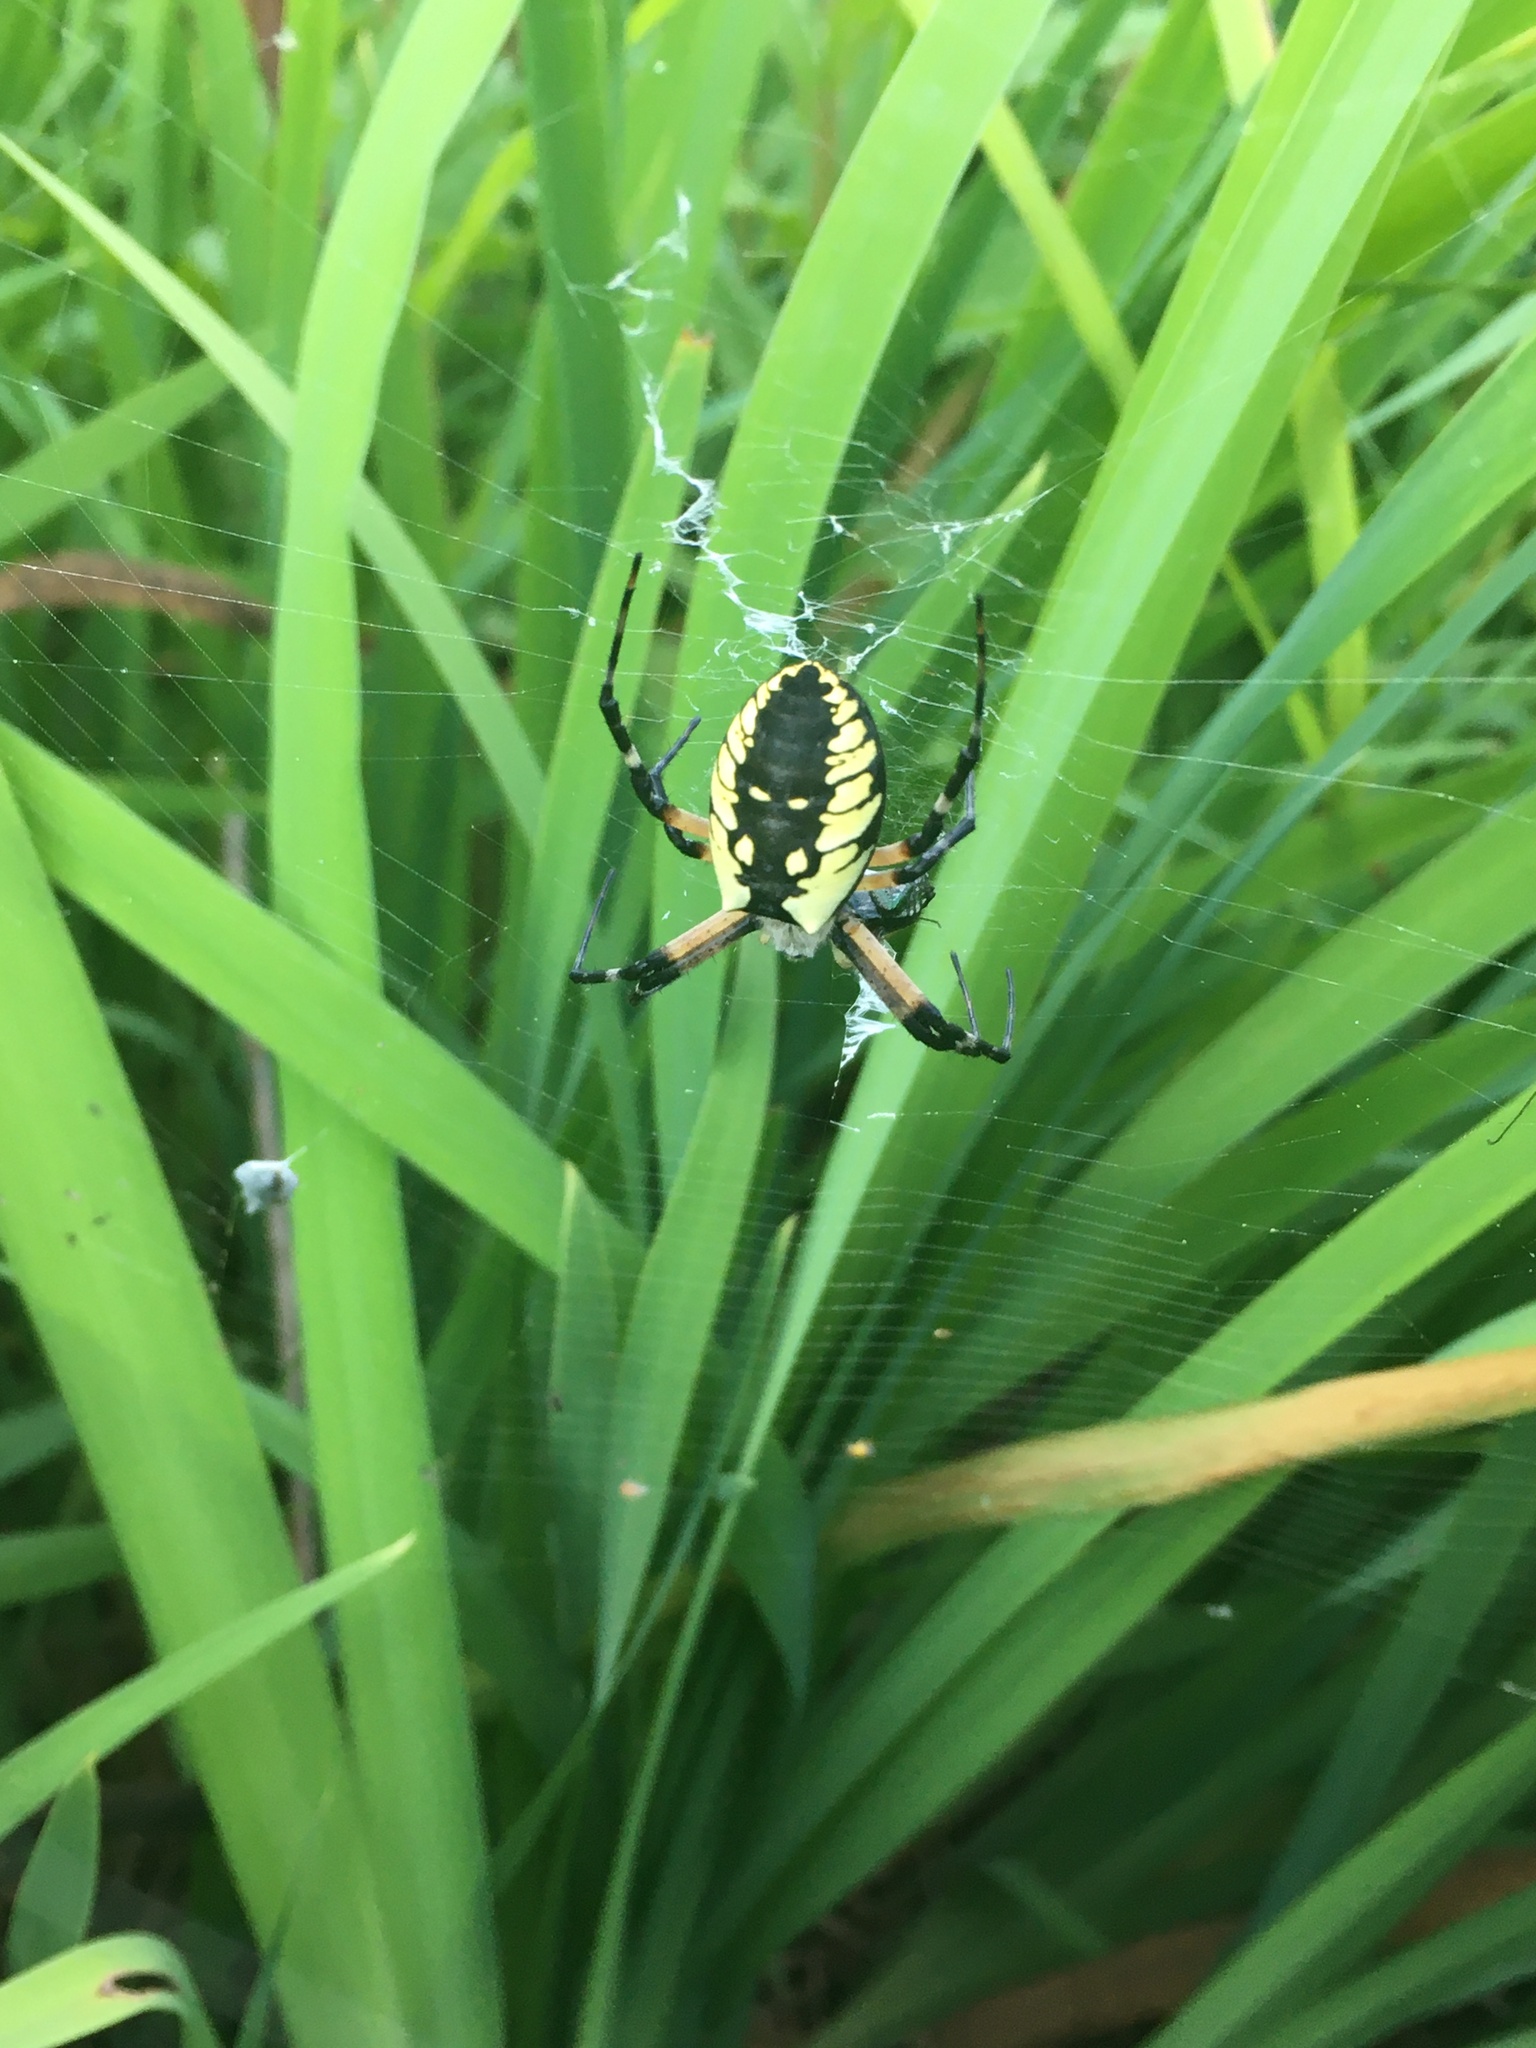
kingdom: Animalia
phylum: Arthropoda
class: Arachnida
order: Araneae
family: Araneidae
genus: Argiope
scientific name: Argiope aurantia
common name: Orb weavers
